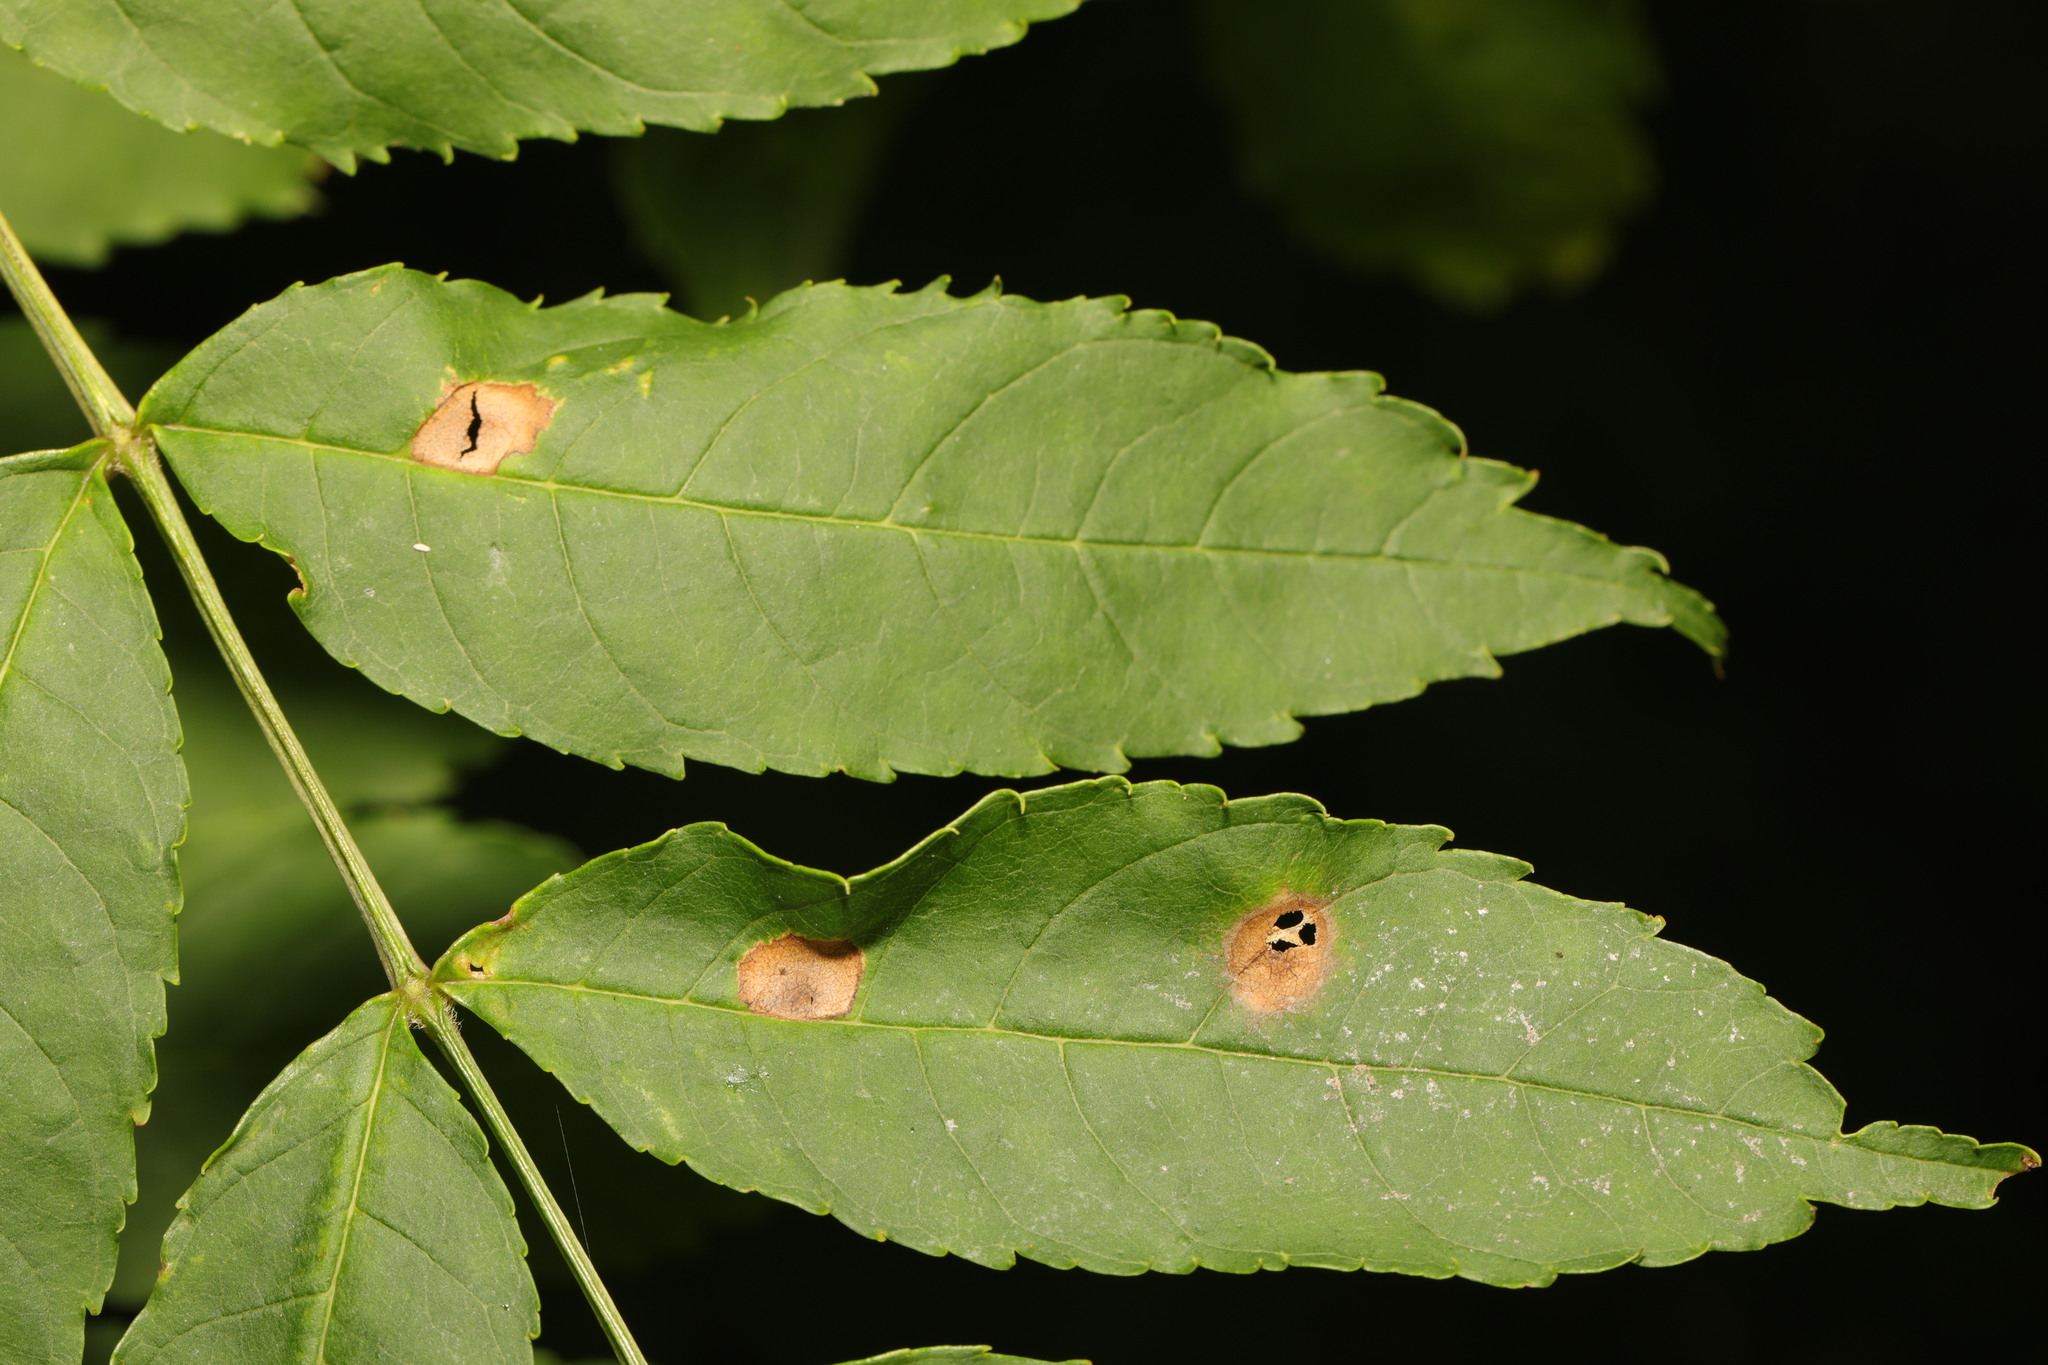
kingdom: Plantae
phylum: Tracheophyta
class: Magnoliopsida
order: Lamiales
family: Oleaceae
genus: Fraxinus
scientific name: Fraxinus excelsior
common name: European ash
